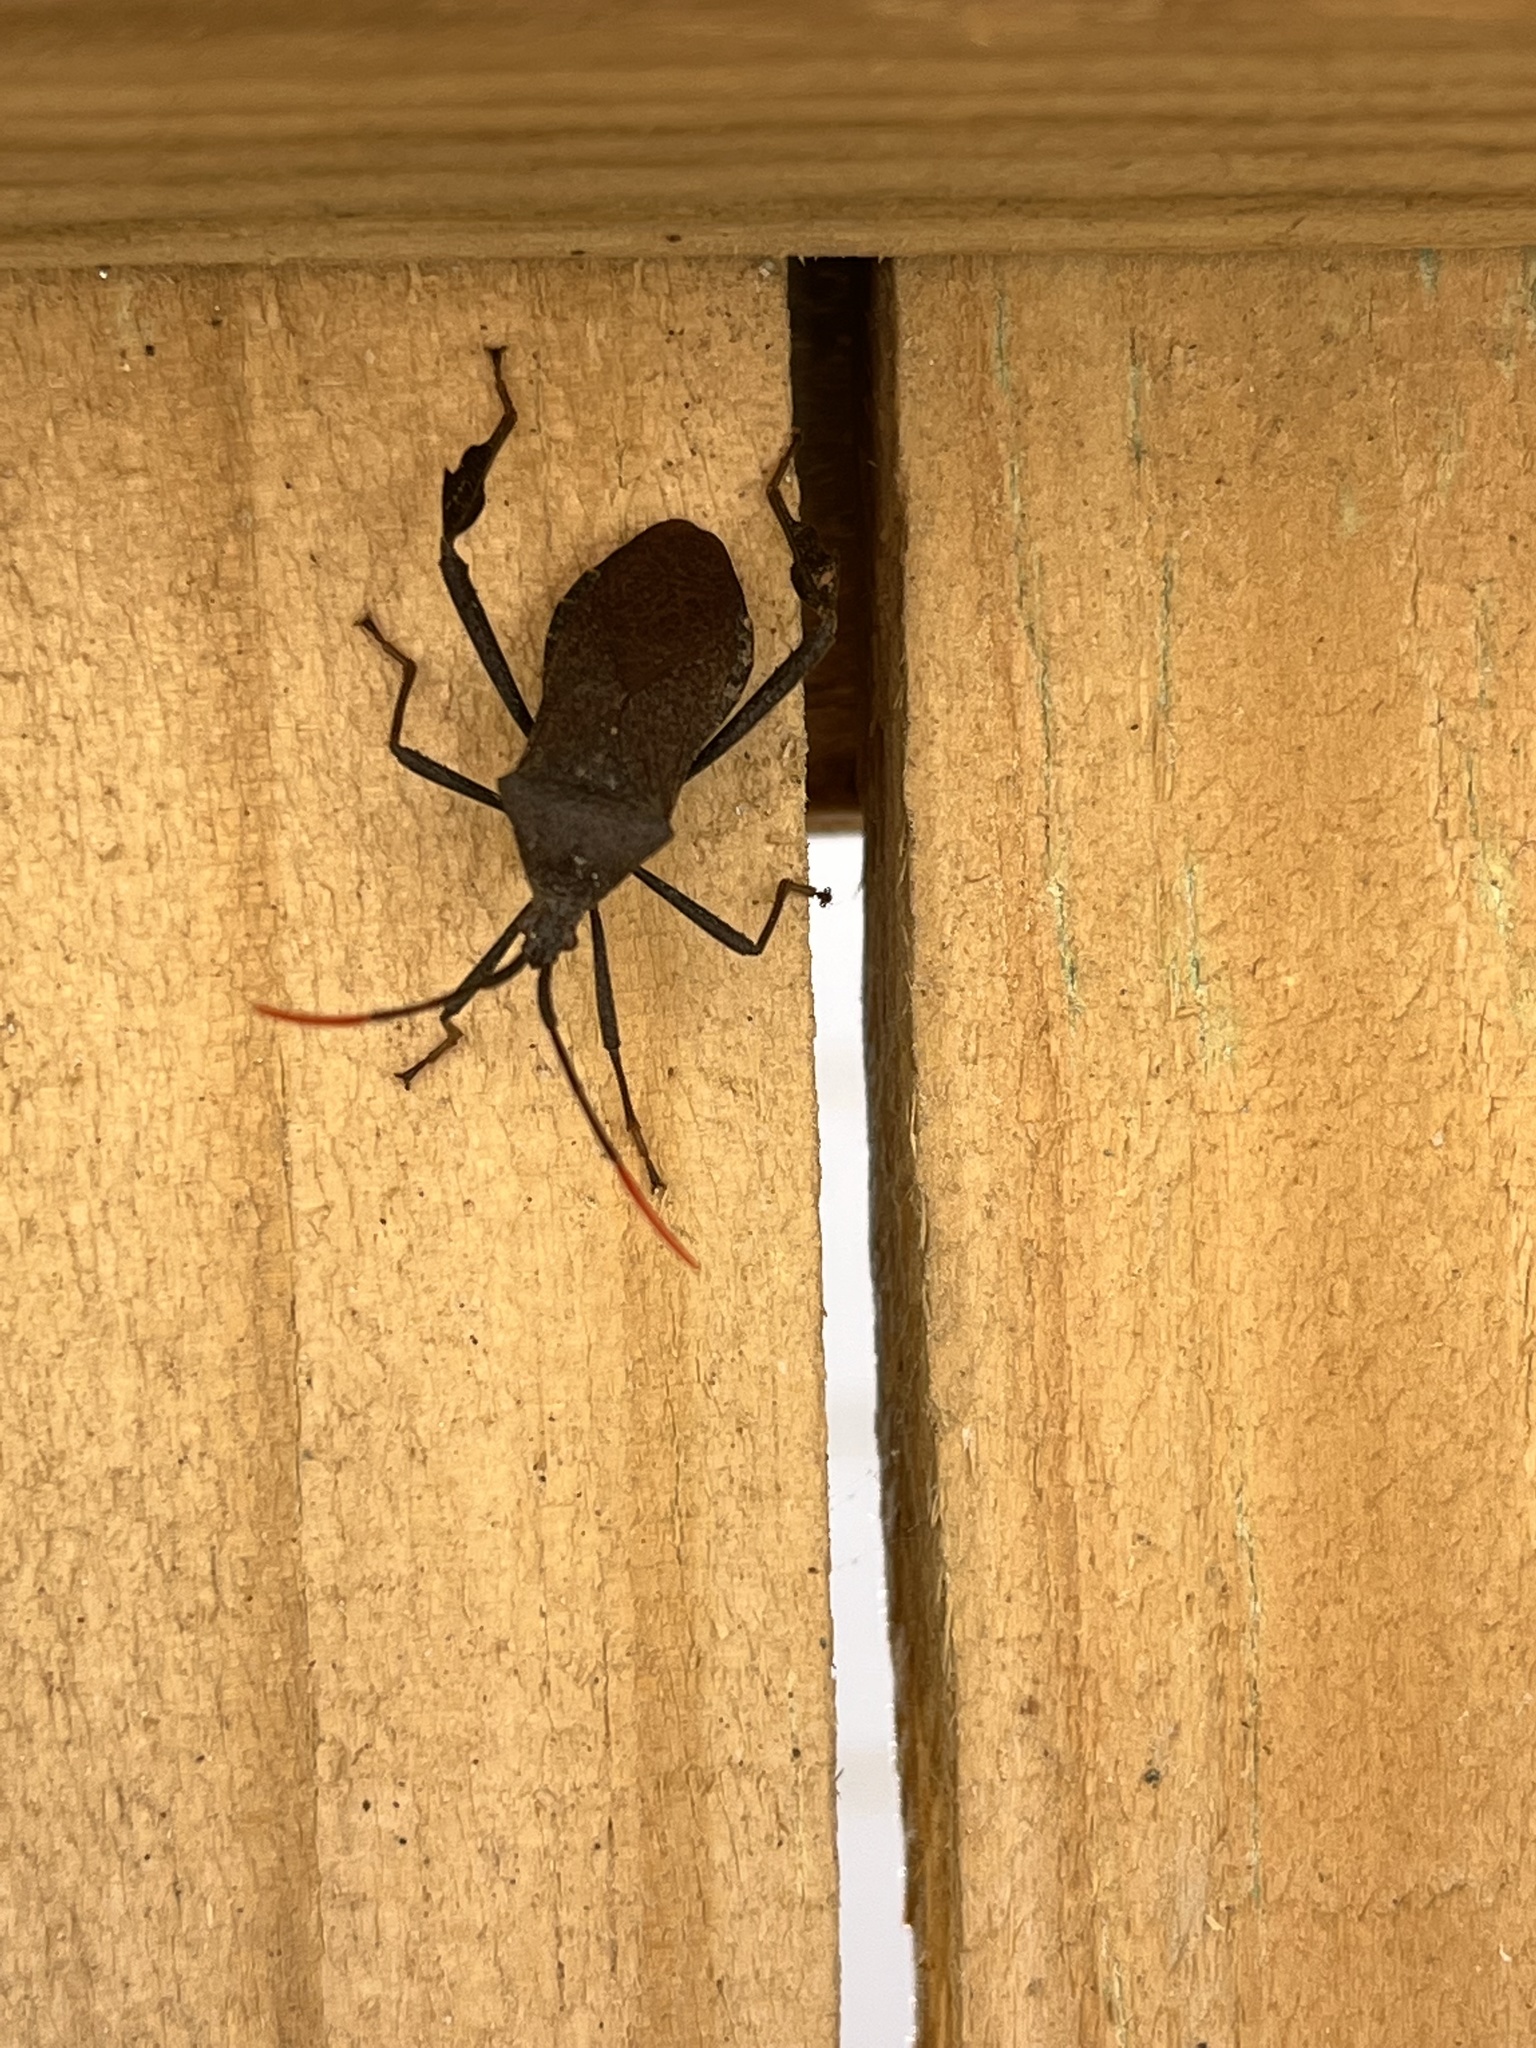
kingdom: Animalia
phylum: Arthropoda
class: Insecta
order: Hemiptera
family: Coreidae
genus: Acanthocephala
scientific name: Acanthocephala terminalis
